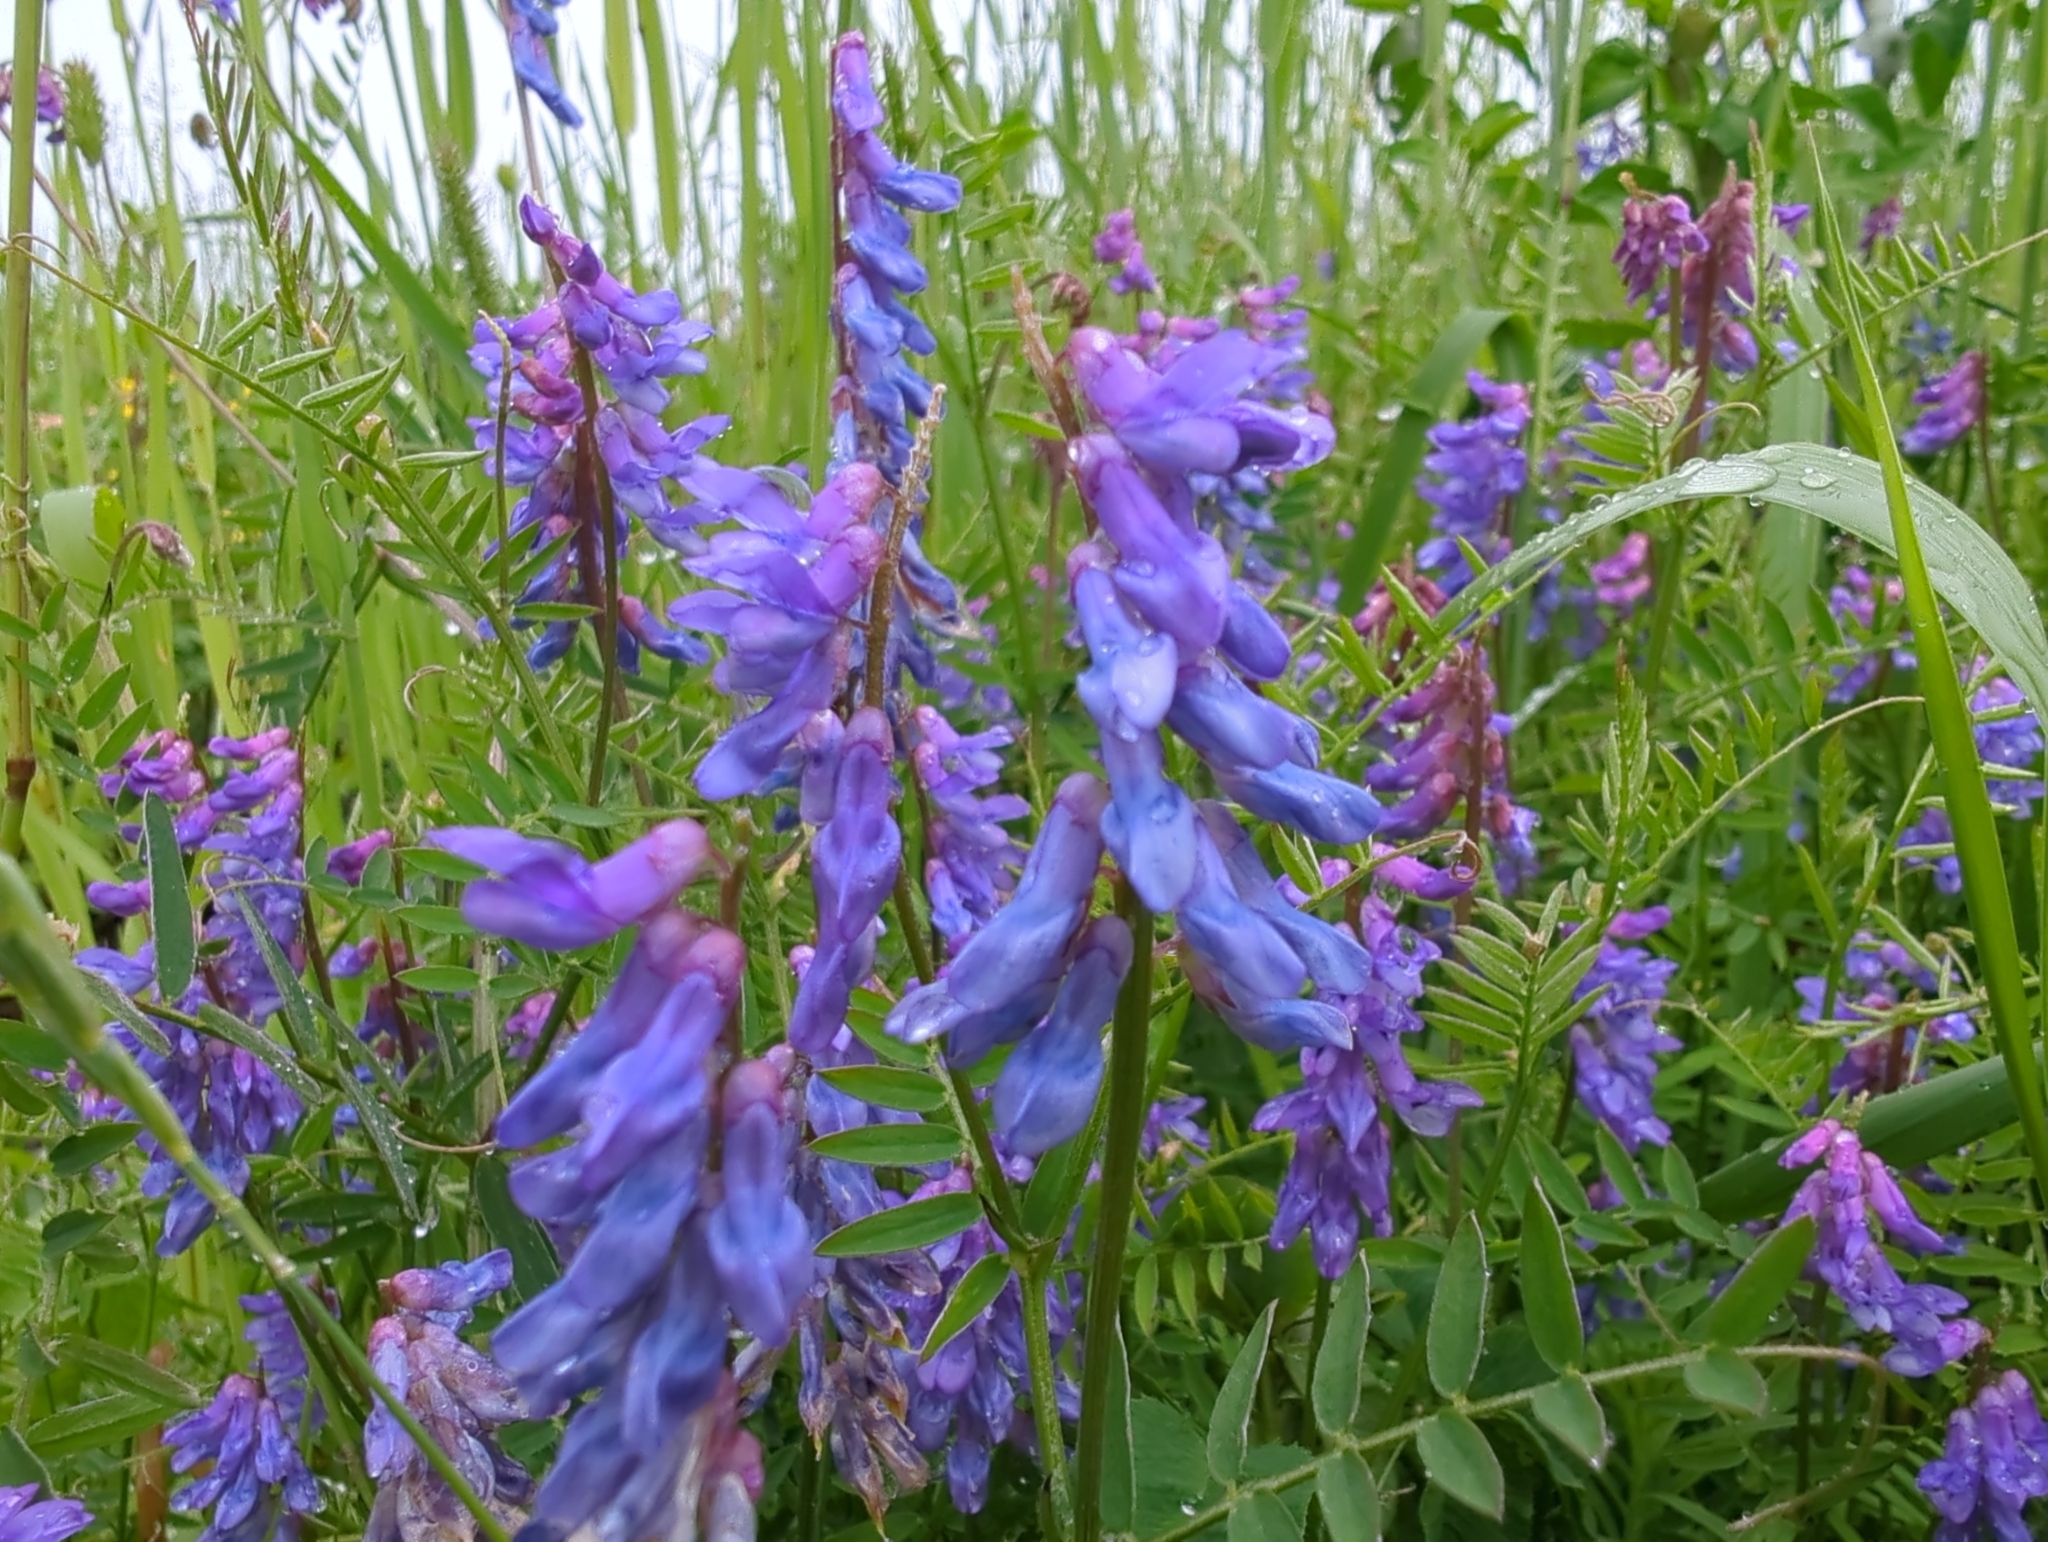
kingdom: Plantae
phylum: Tracheophyta
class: Magnoliopsida
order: Fabales
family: Fabaceae
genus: Vicia
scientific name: Vicia cracca
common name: Bird vetch
